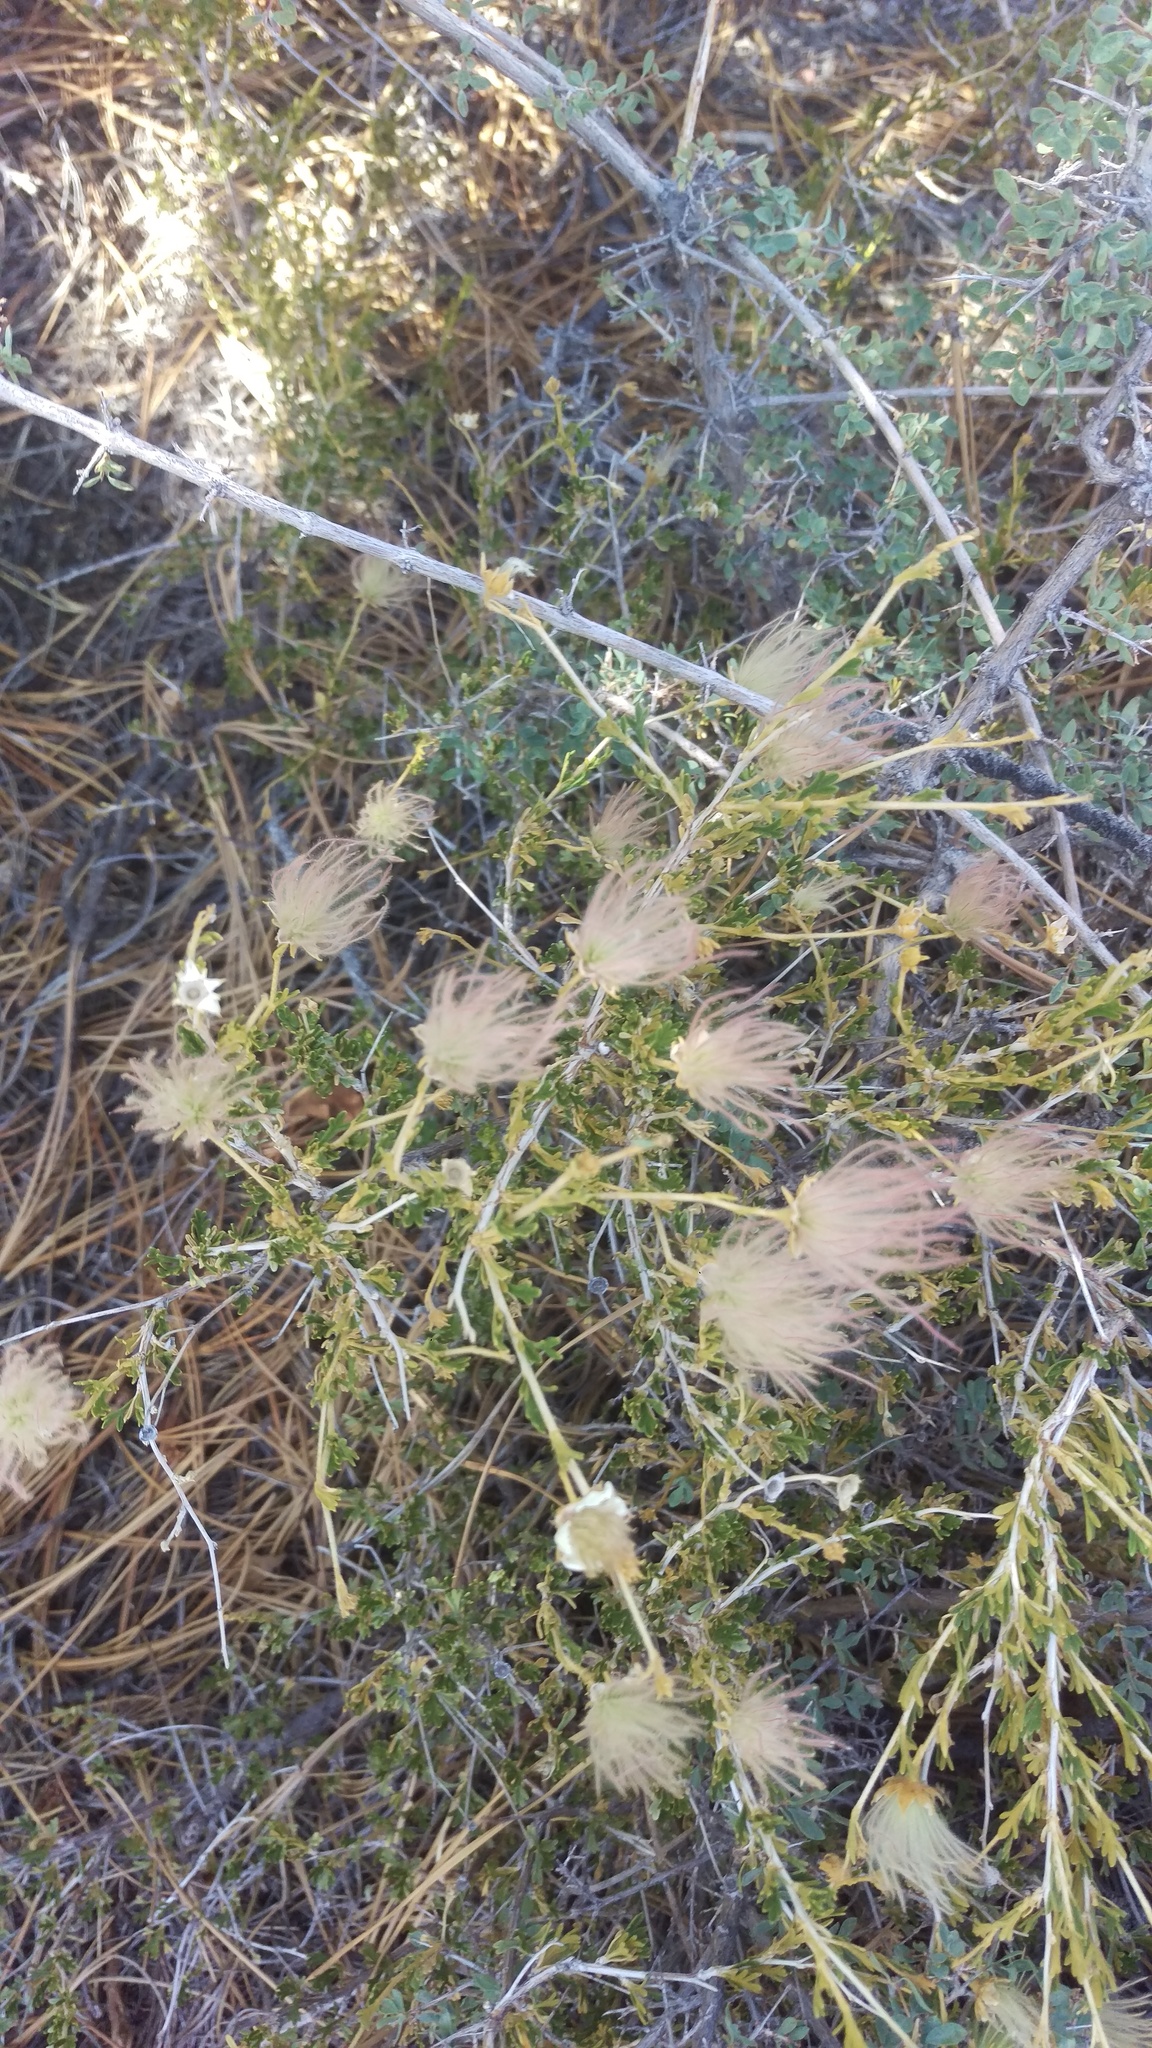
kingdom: Plantae
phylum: Tracheophyta
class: Magnoliopsida
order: Rosales
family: Rosaceae
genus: Fallugia
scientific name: Fallugia paradoxa
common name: Apache-plume
